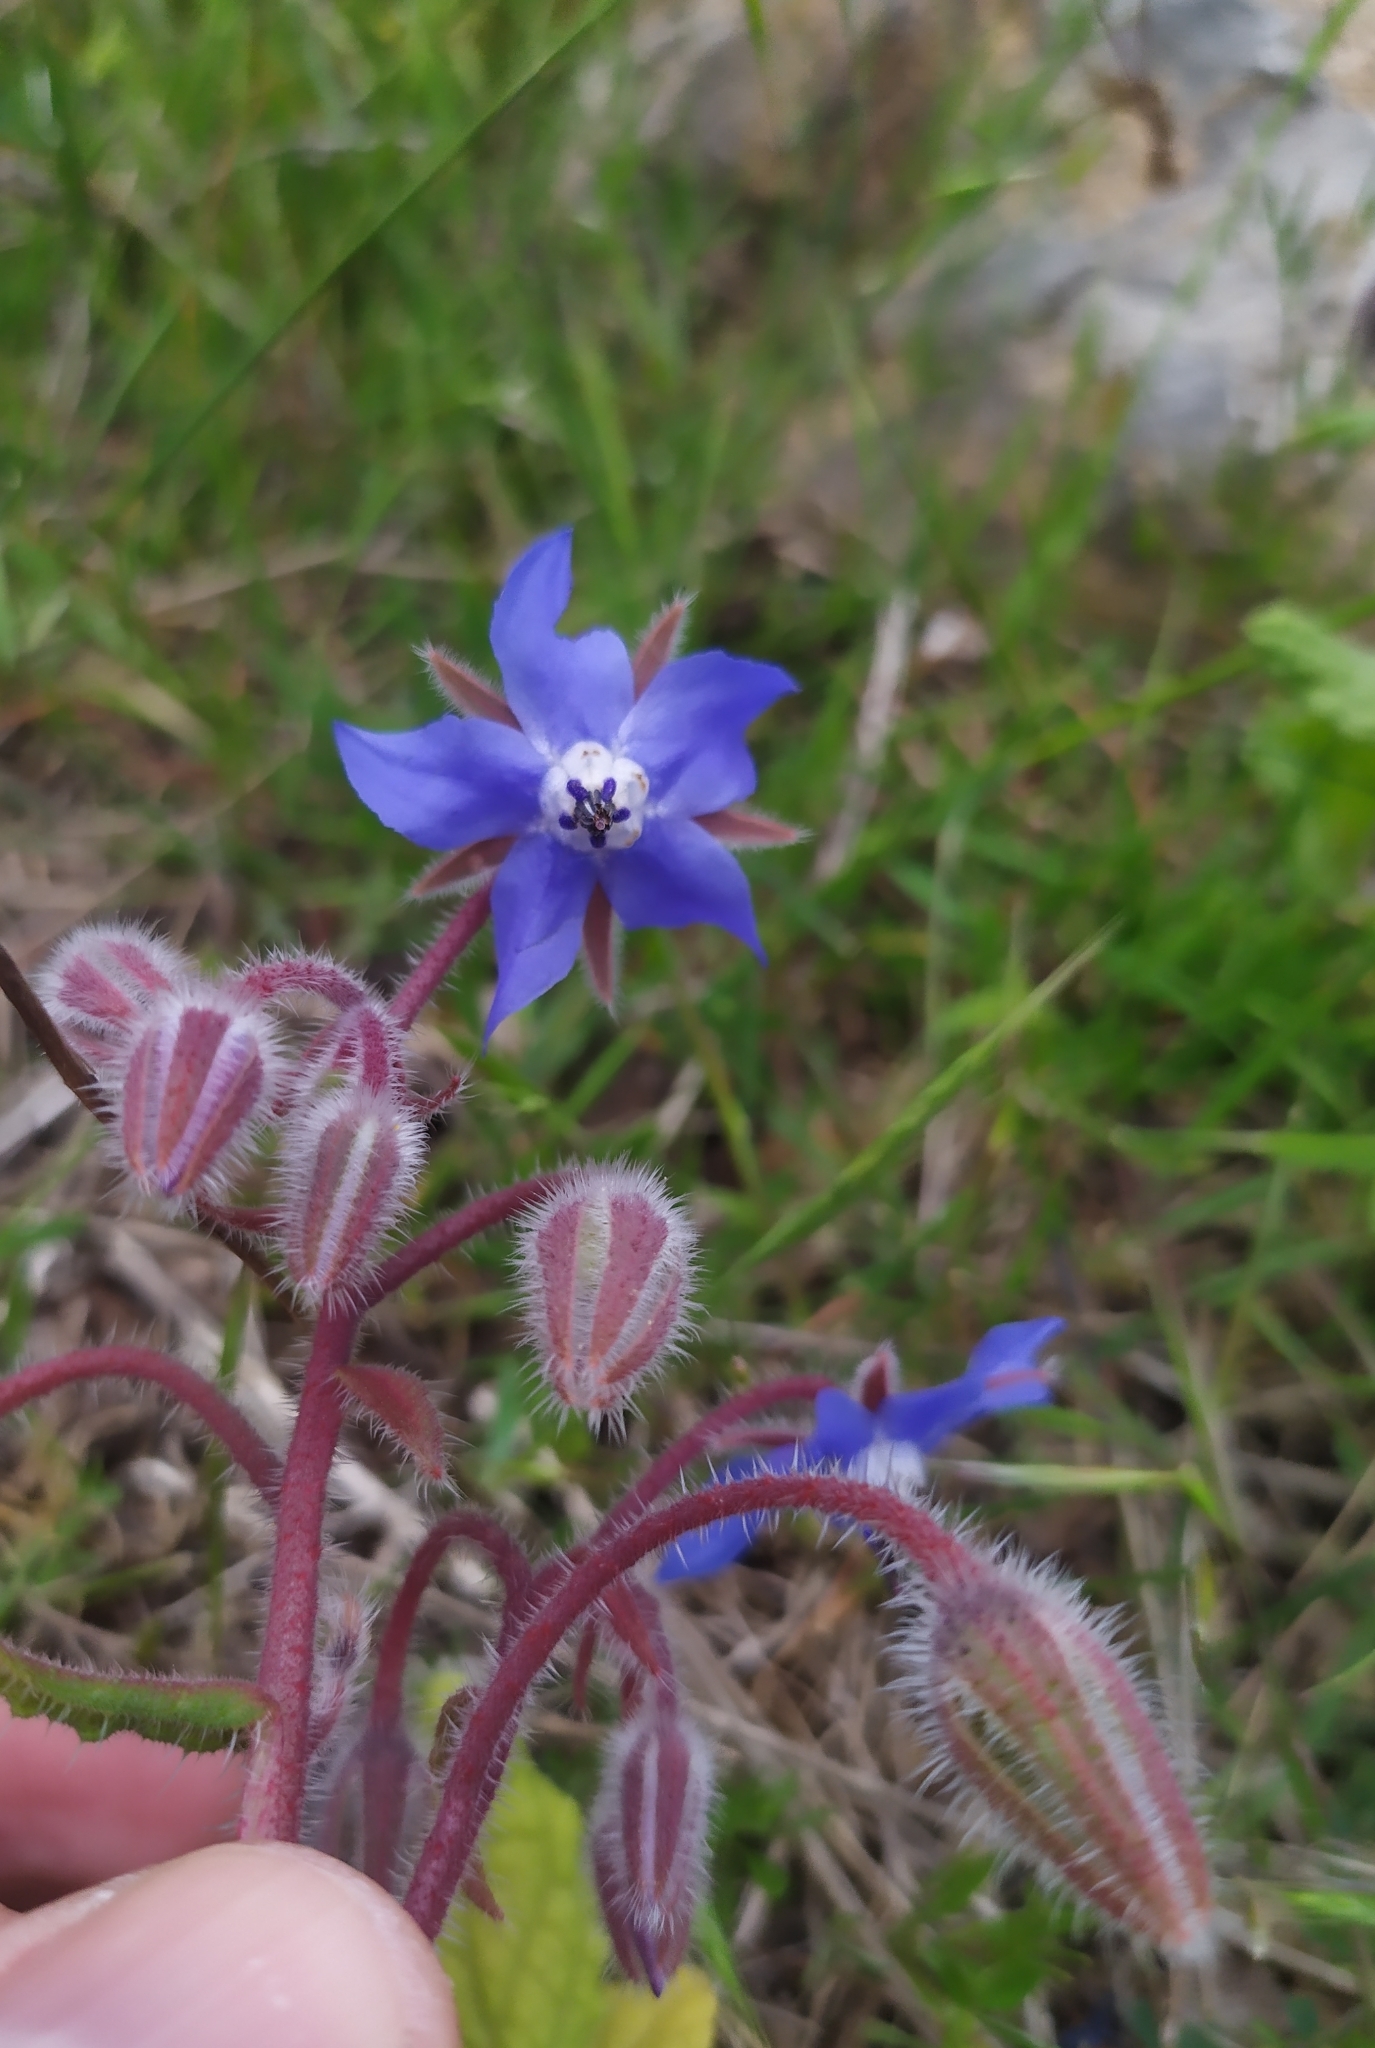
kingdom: Plantae
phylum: Tracheophyta
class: Magnoliopsida
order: Boraginales
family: Boraginaceae
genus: Borago
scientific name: Borago officinalis
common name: Borage
